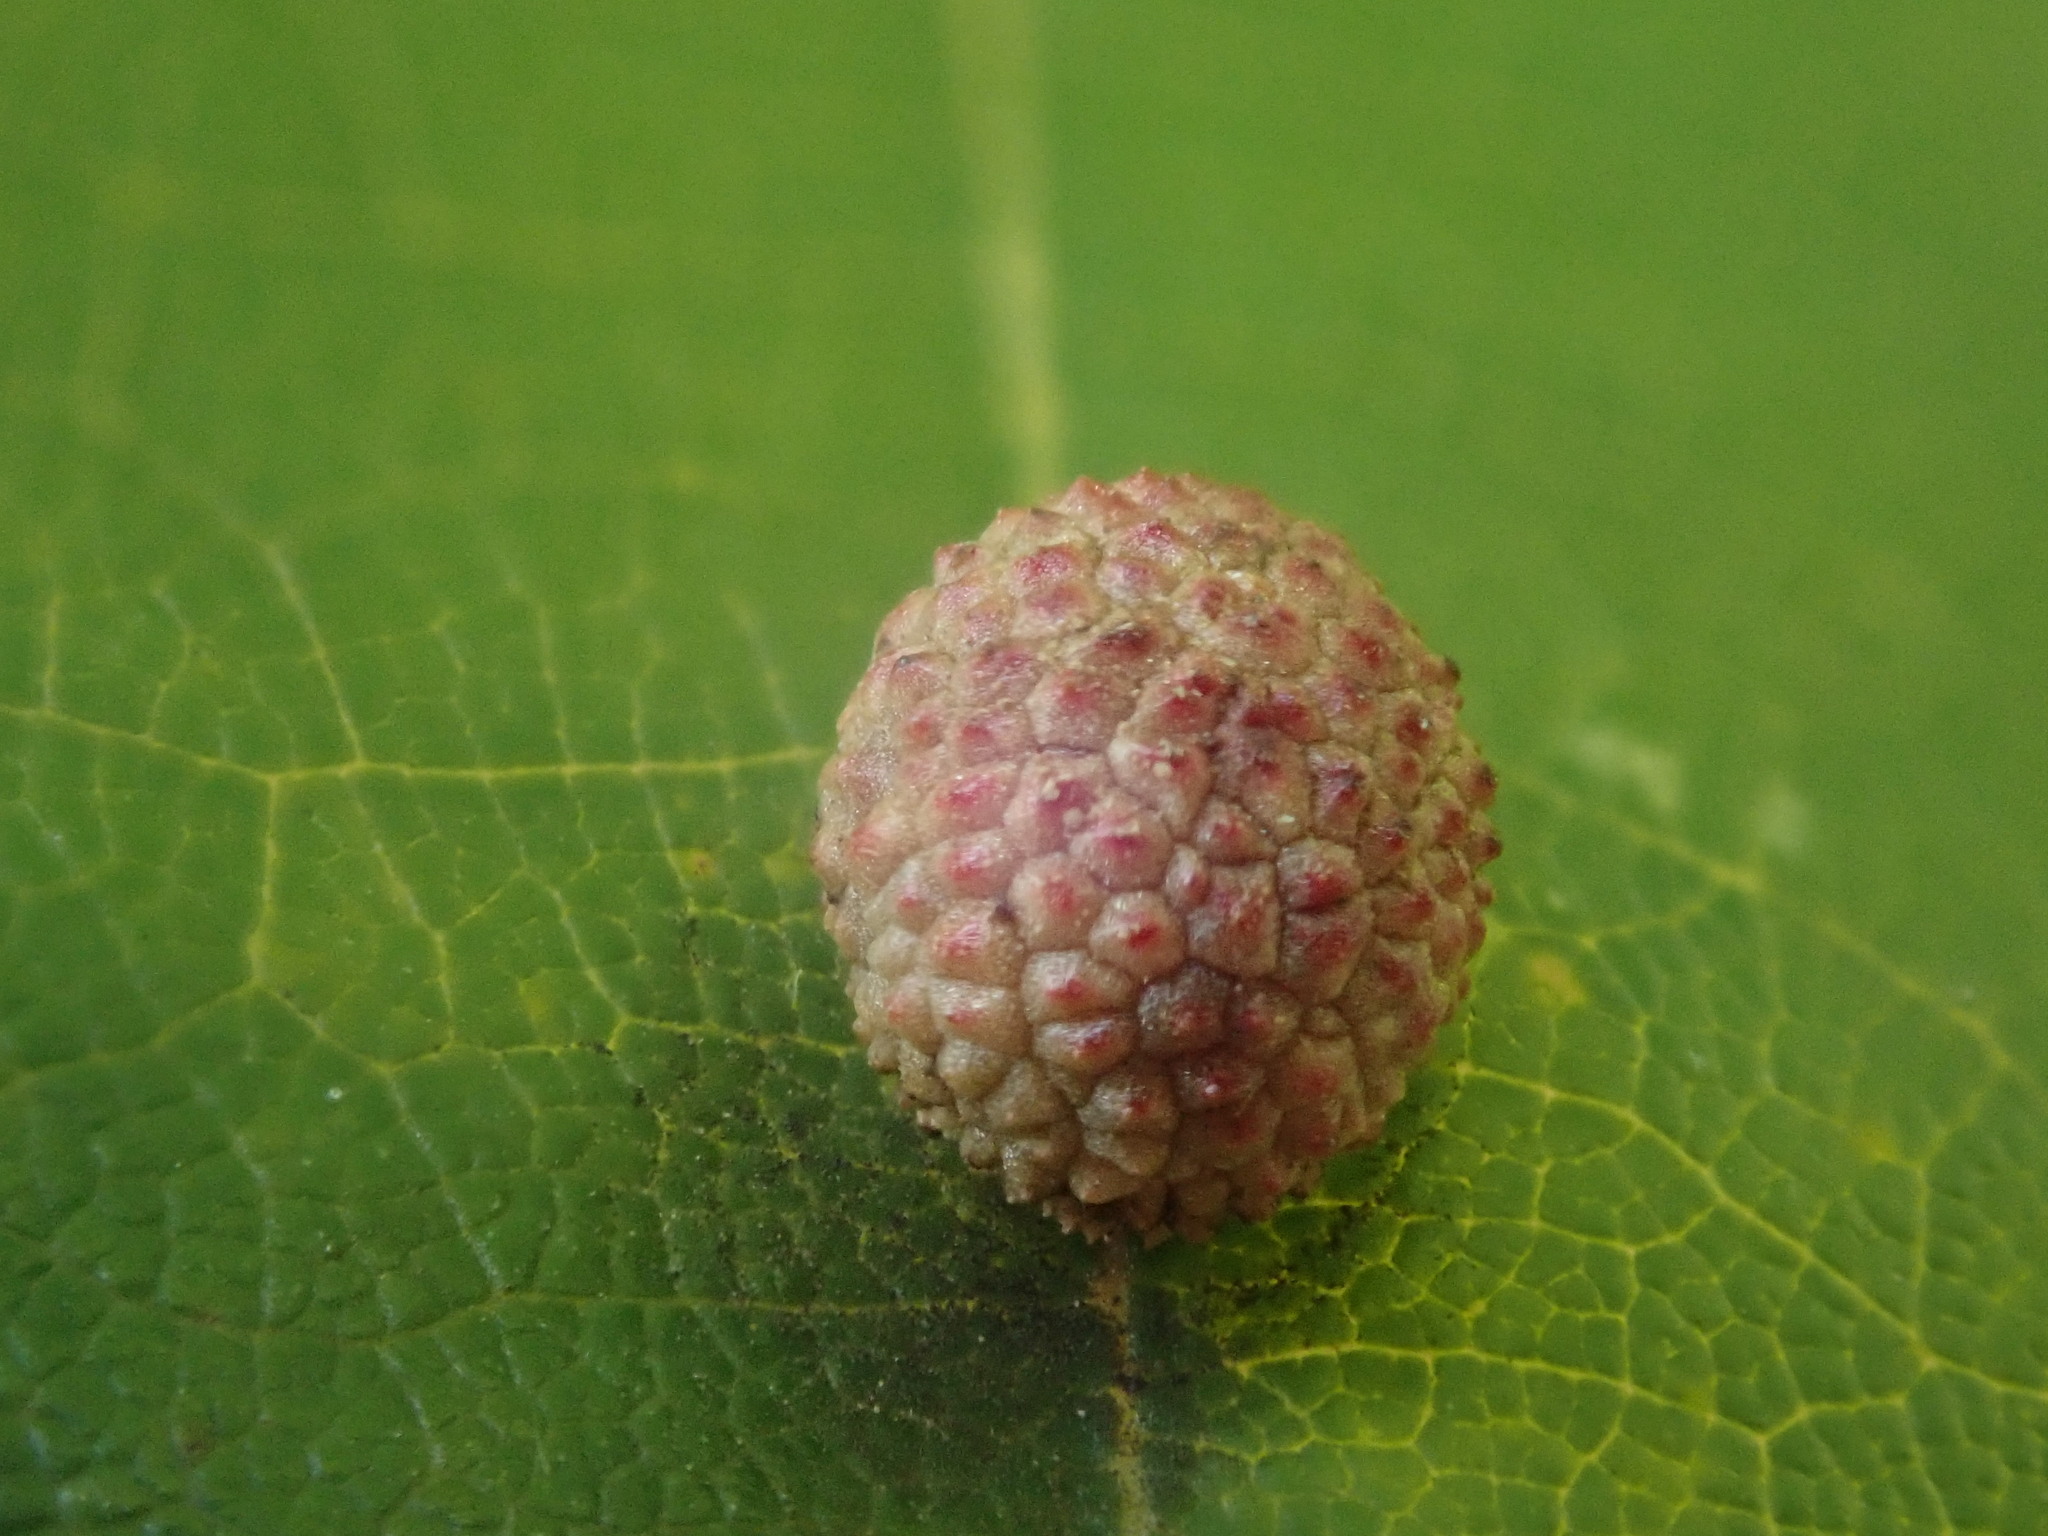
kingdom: Animalia
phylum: Arthropoda
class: Insecta
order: Hymenoptera
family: Cynipidae
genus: Acraspis
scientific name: Acraspis quercushirta
